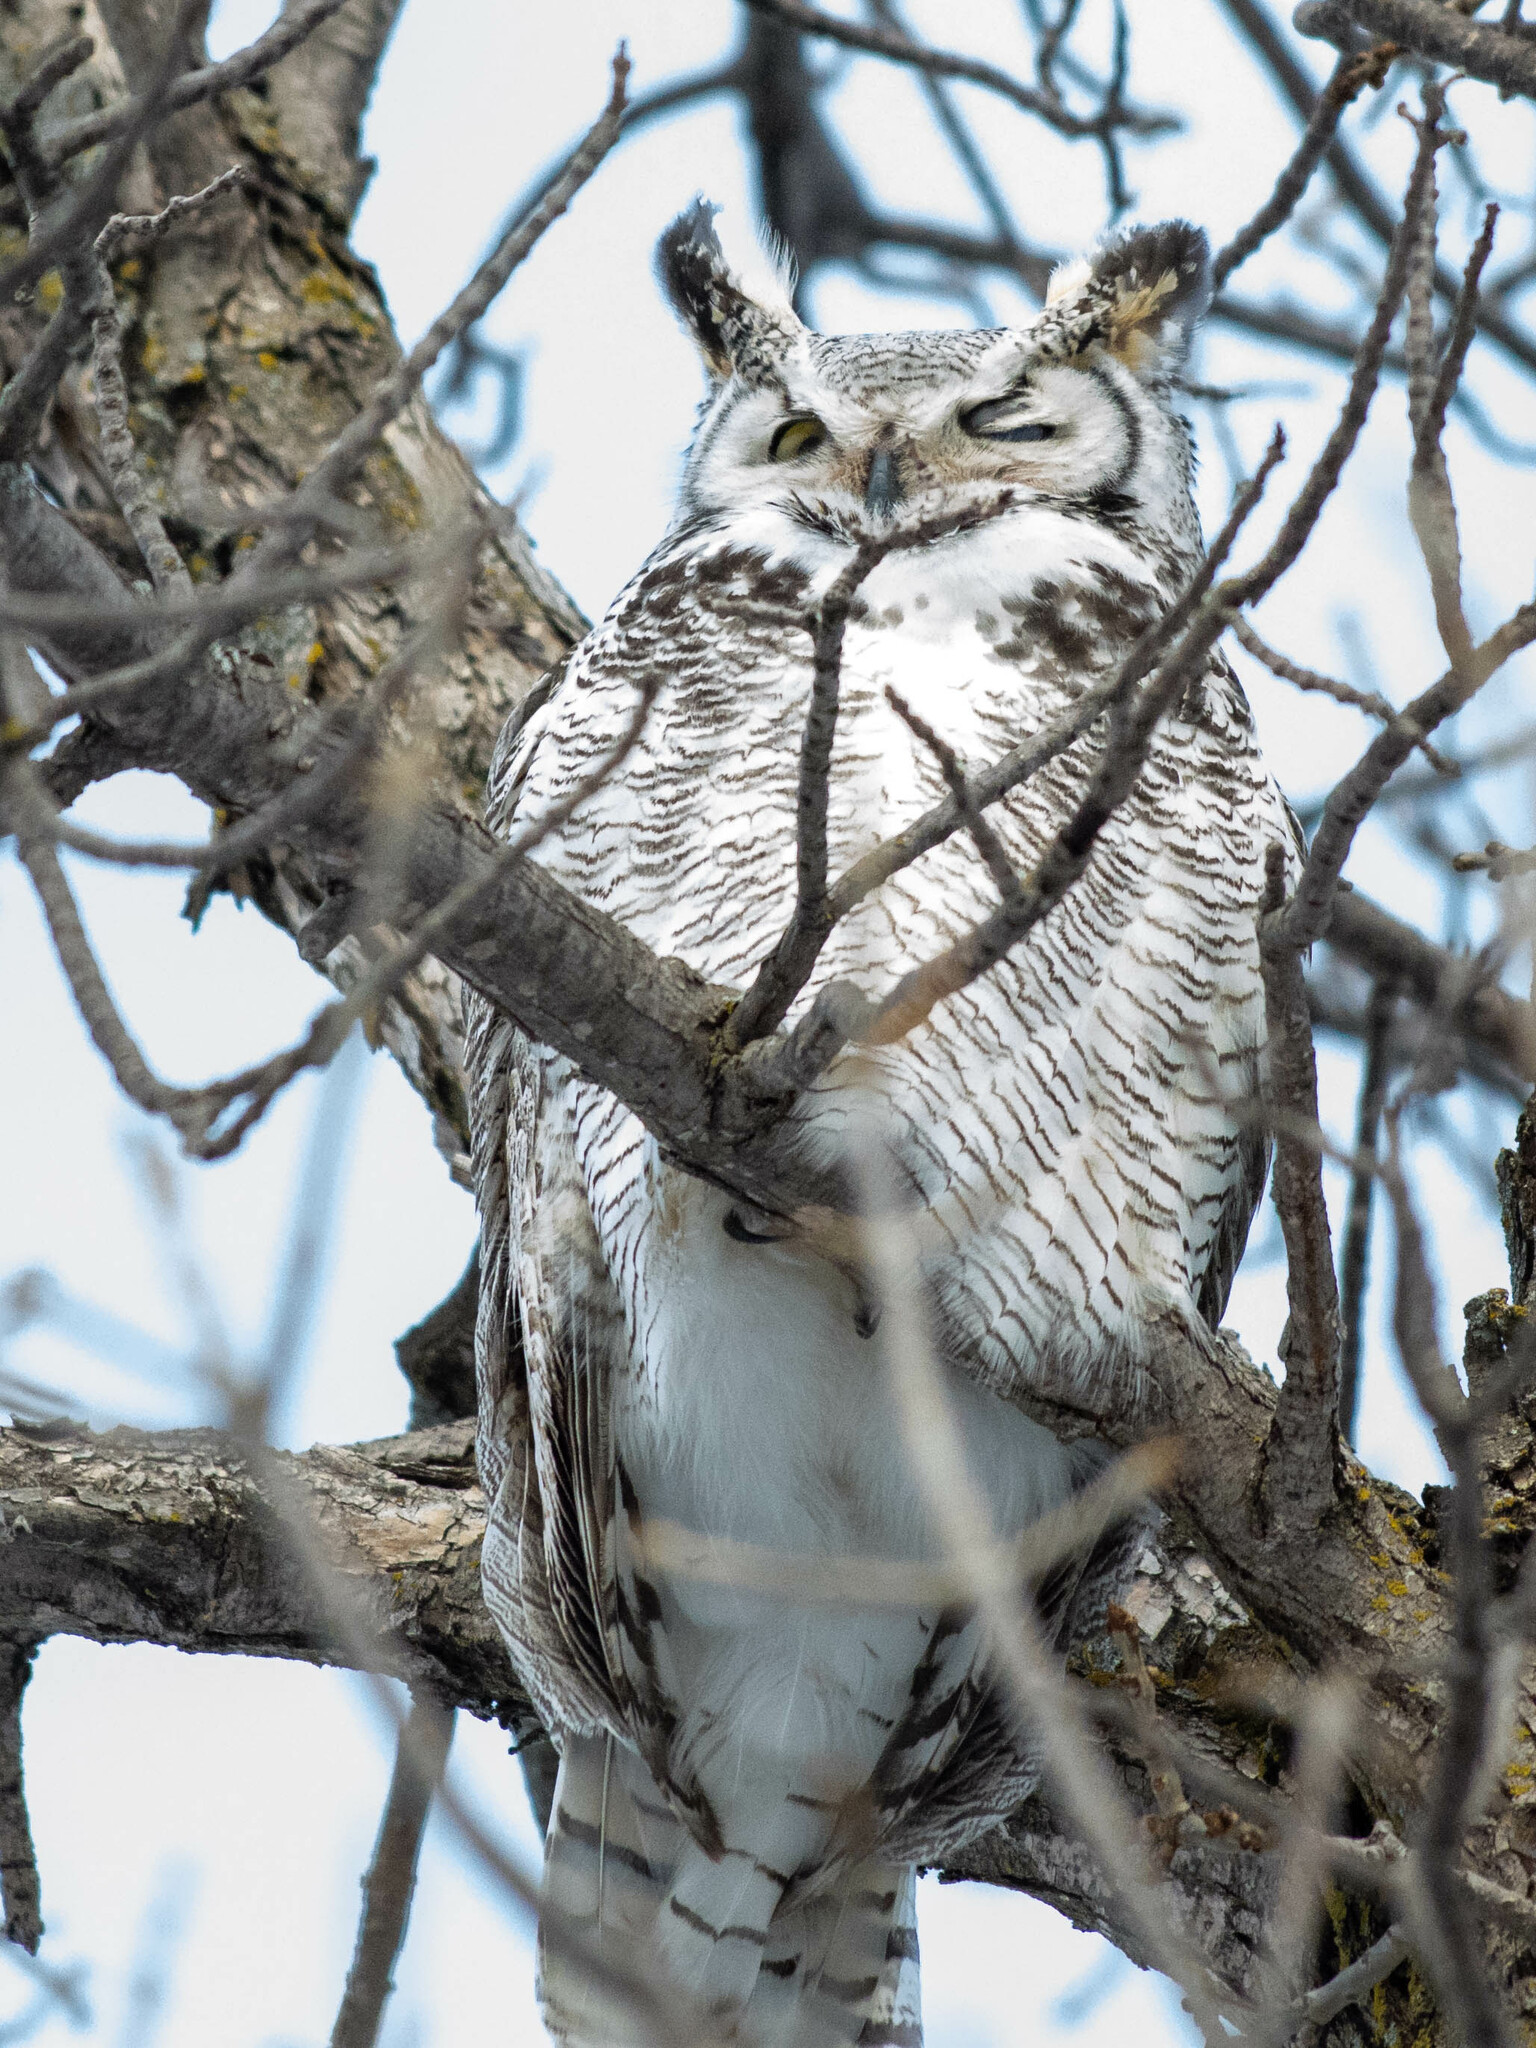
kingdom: Animalia
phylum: Chordata
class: Aves
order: Strigiformes
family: Strigidae
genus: Bubo
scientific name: Bubo virginianus
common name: Great horned owl
